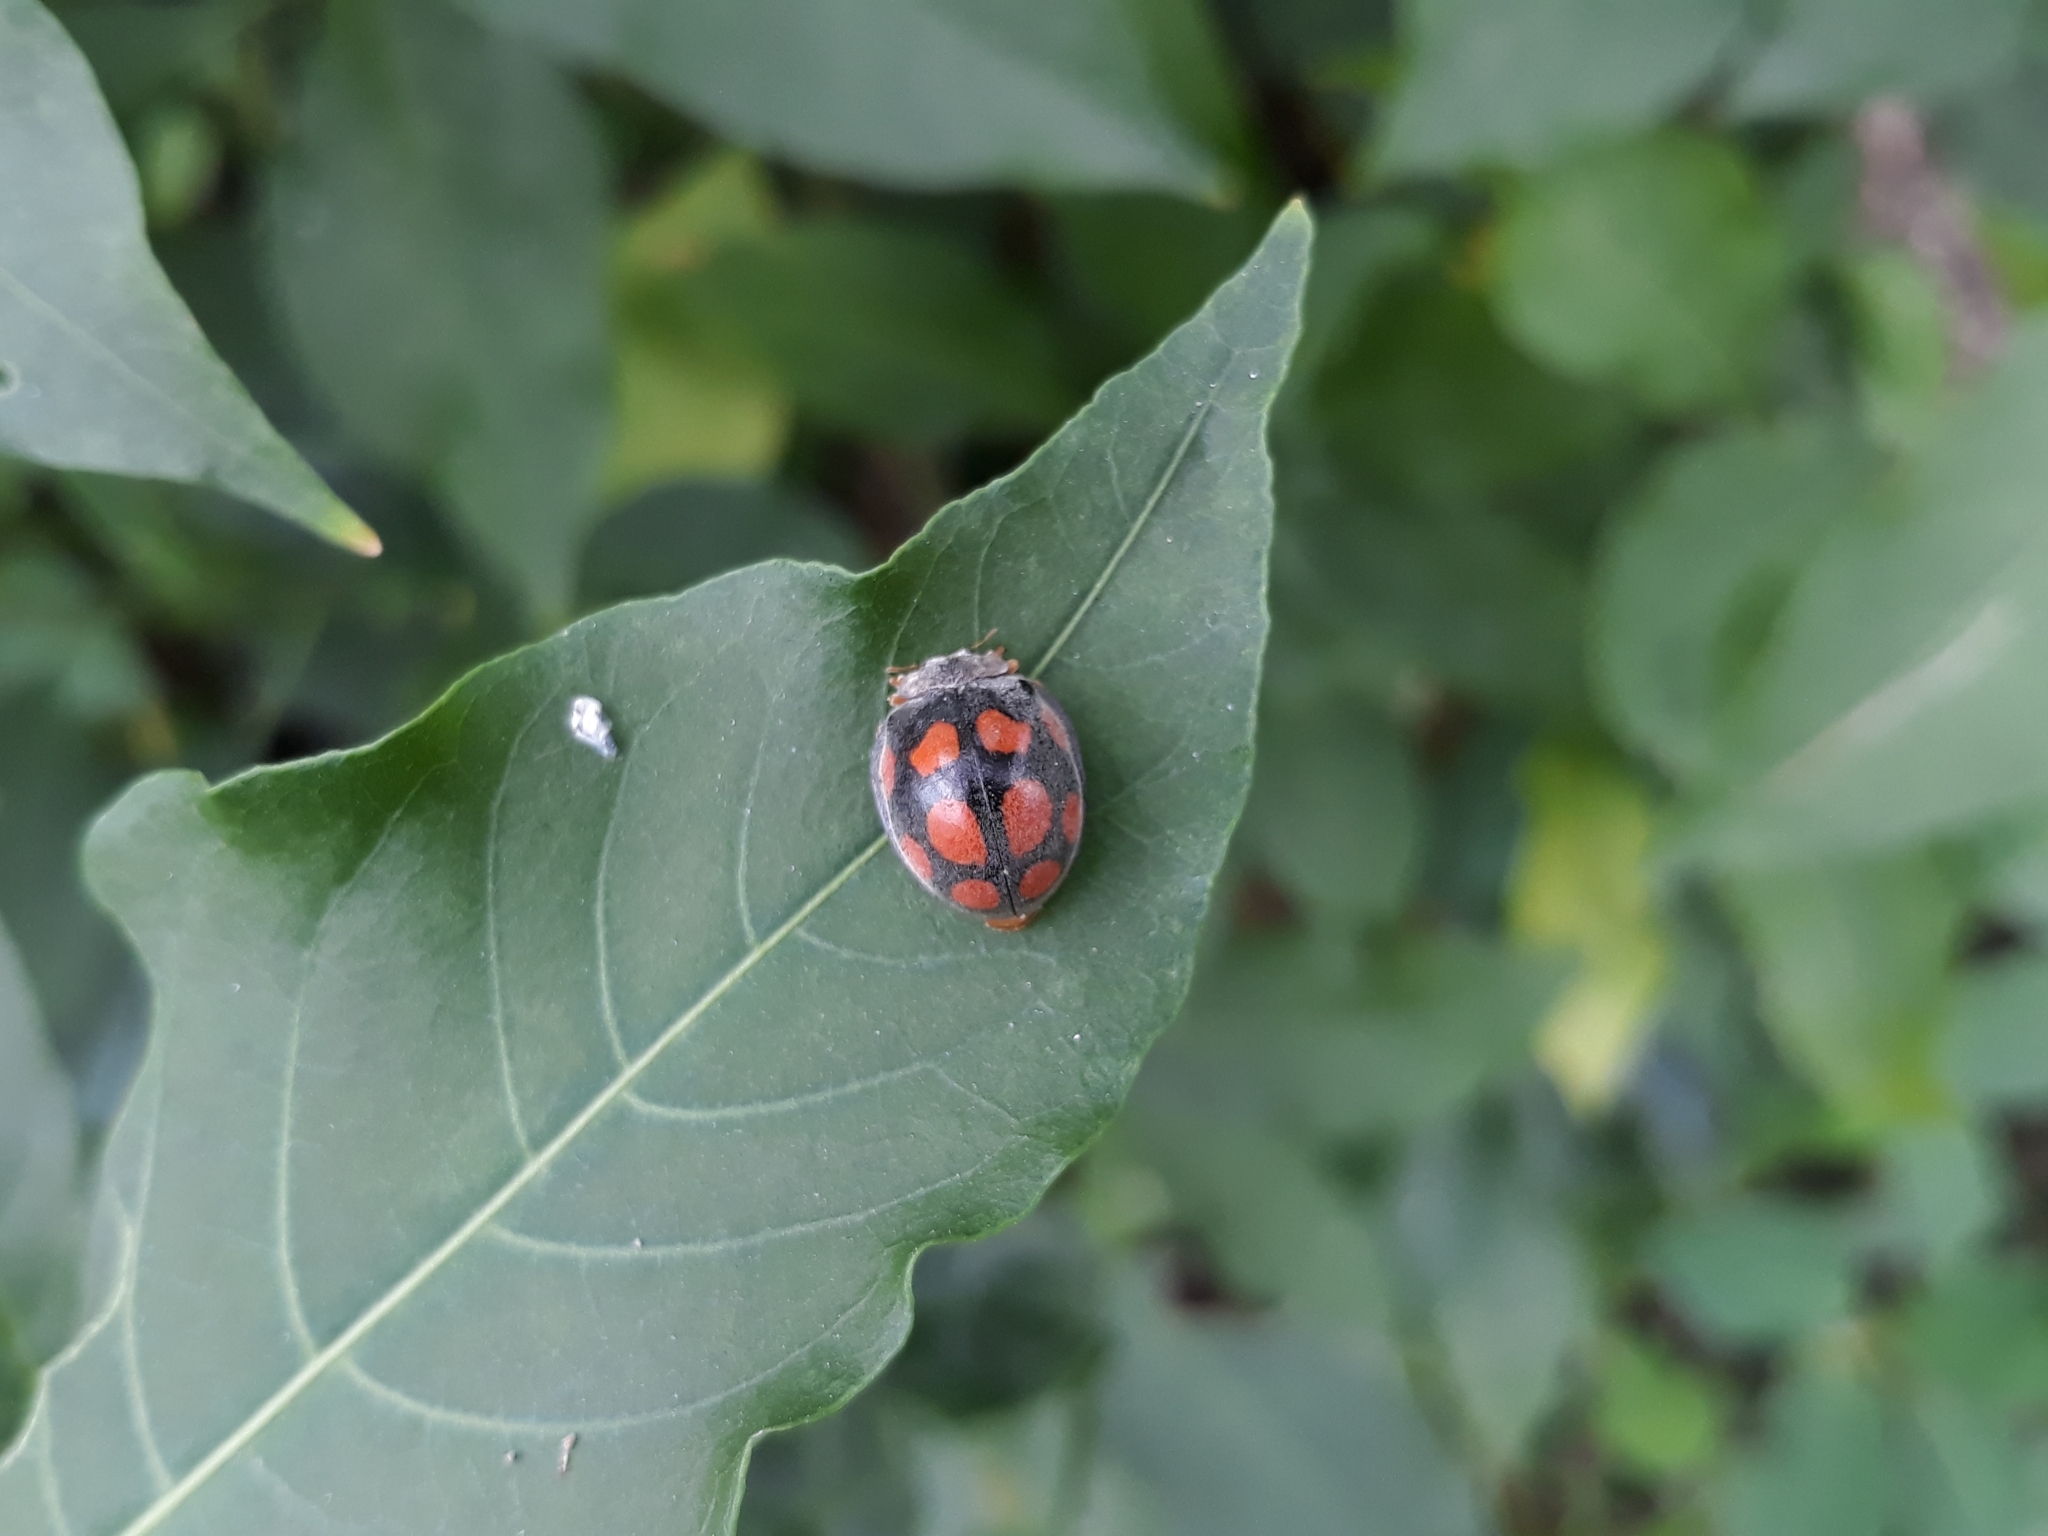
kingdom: Animalia
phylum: Arthropoda
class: Insecta
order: Coleoptera
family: Coccinellidae
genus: Epilachna
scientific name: Epilachna
